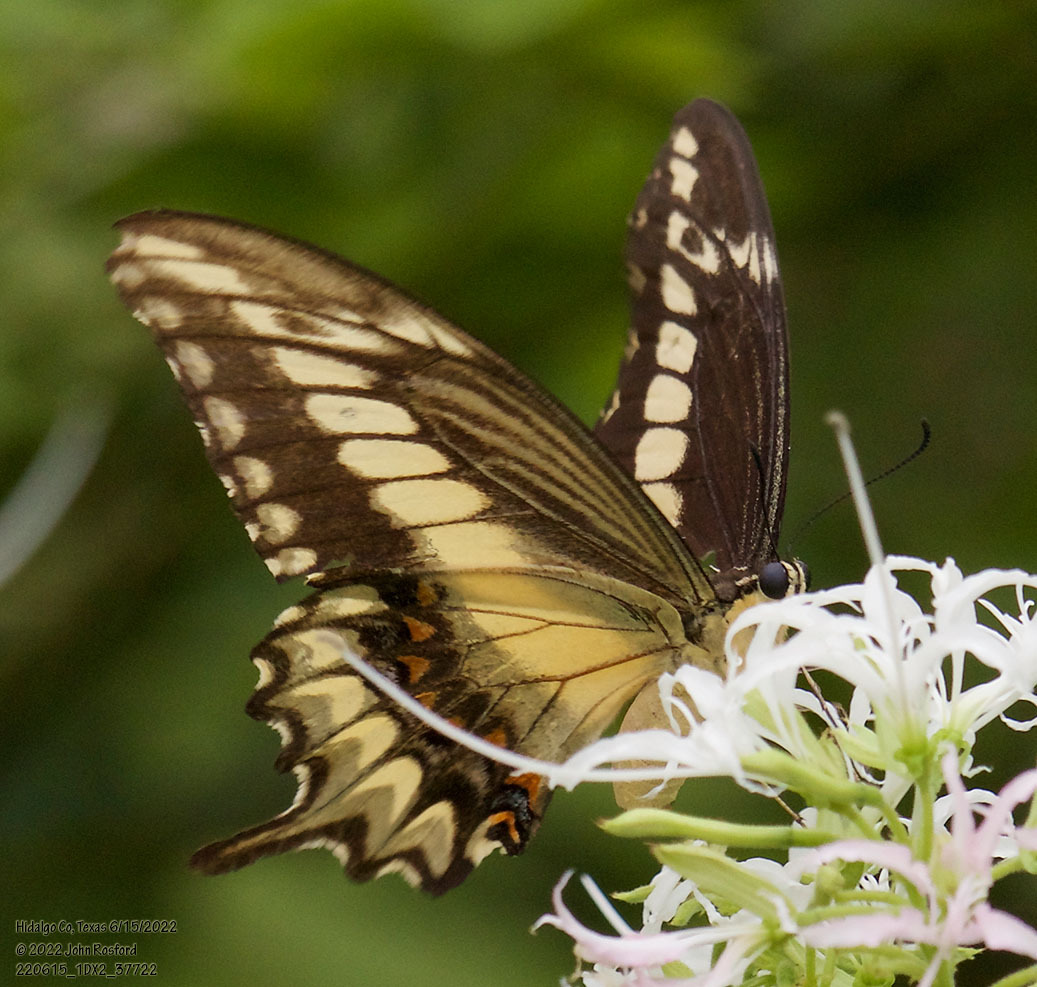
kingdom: Animalia
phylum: Arthropoda
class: Insecta
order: Lepidoptera
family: Papilionidae
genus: Papilio
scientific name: Papilio ornythion
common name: Ornythion swallowtail
